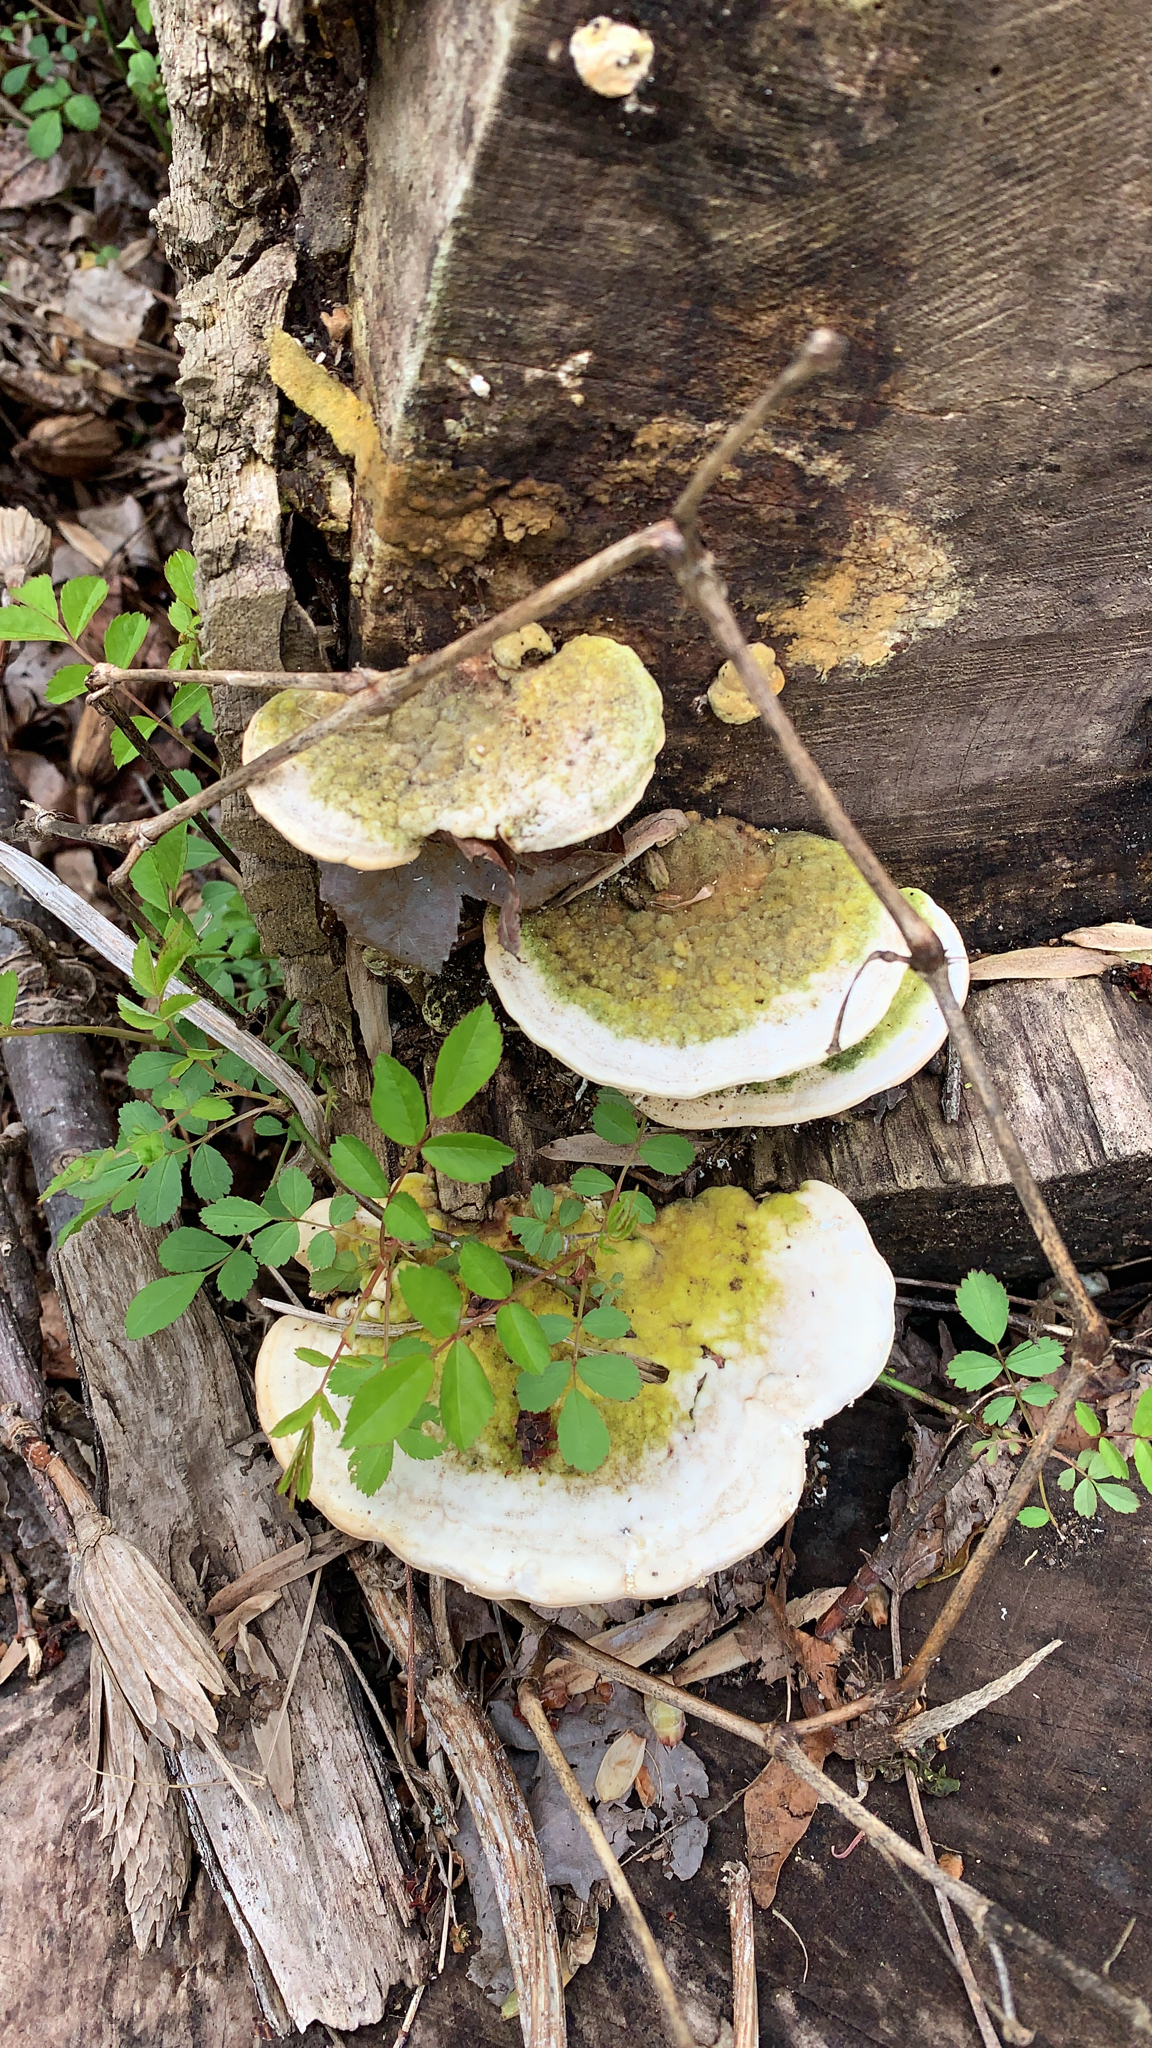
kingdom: Fungi
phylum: Basidiomycota
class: Agaricomycetes
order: Polyporales
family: Polyporaceae
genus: Trametes
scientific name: Trametes gibbosa
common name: Lumpy bracket
